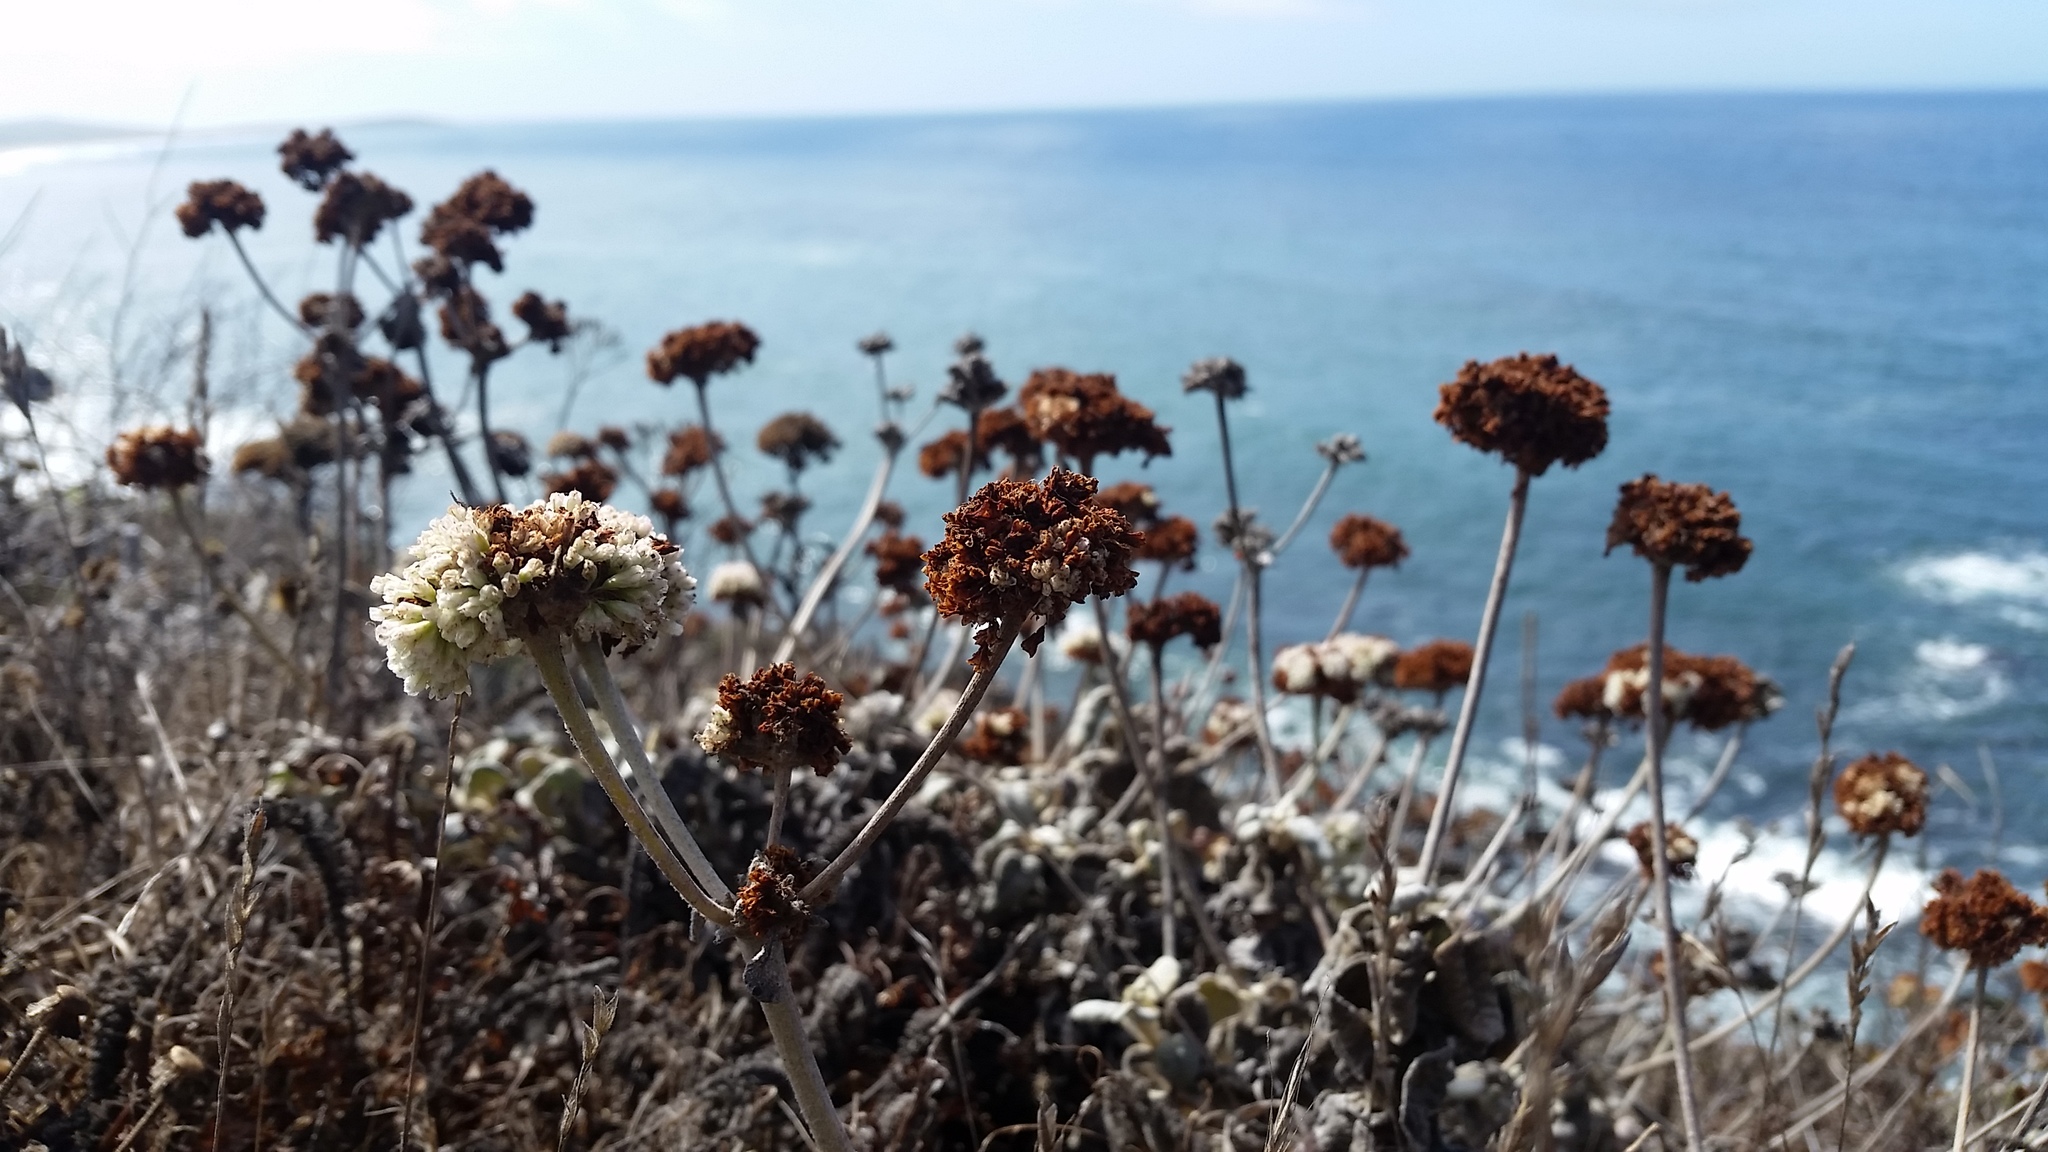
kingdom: Plantae
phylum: Tracheophyta
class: Magnoliopsida
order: Caryophyllales
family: Polygonaceae
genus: Eriogonum
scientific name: Eriogonum latifolium
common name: Seaside wild buckwheat
